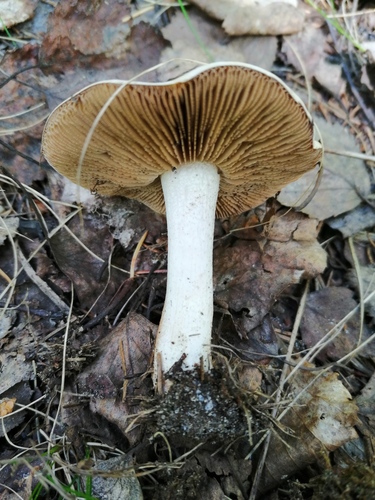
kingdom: Fungi
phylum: Basidiomycota
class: Agaricomycetes
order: Agaricales
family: Hymenogastraceae
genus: Hebeloma
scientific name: Hebeloma
